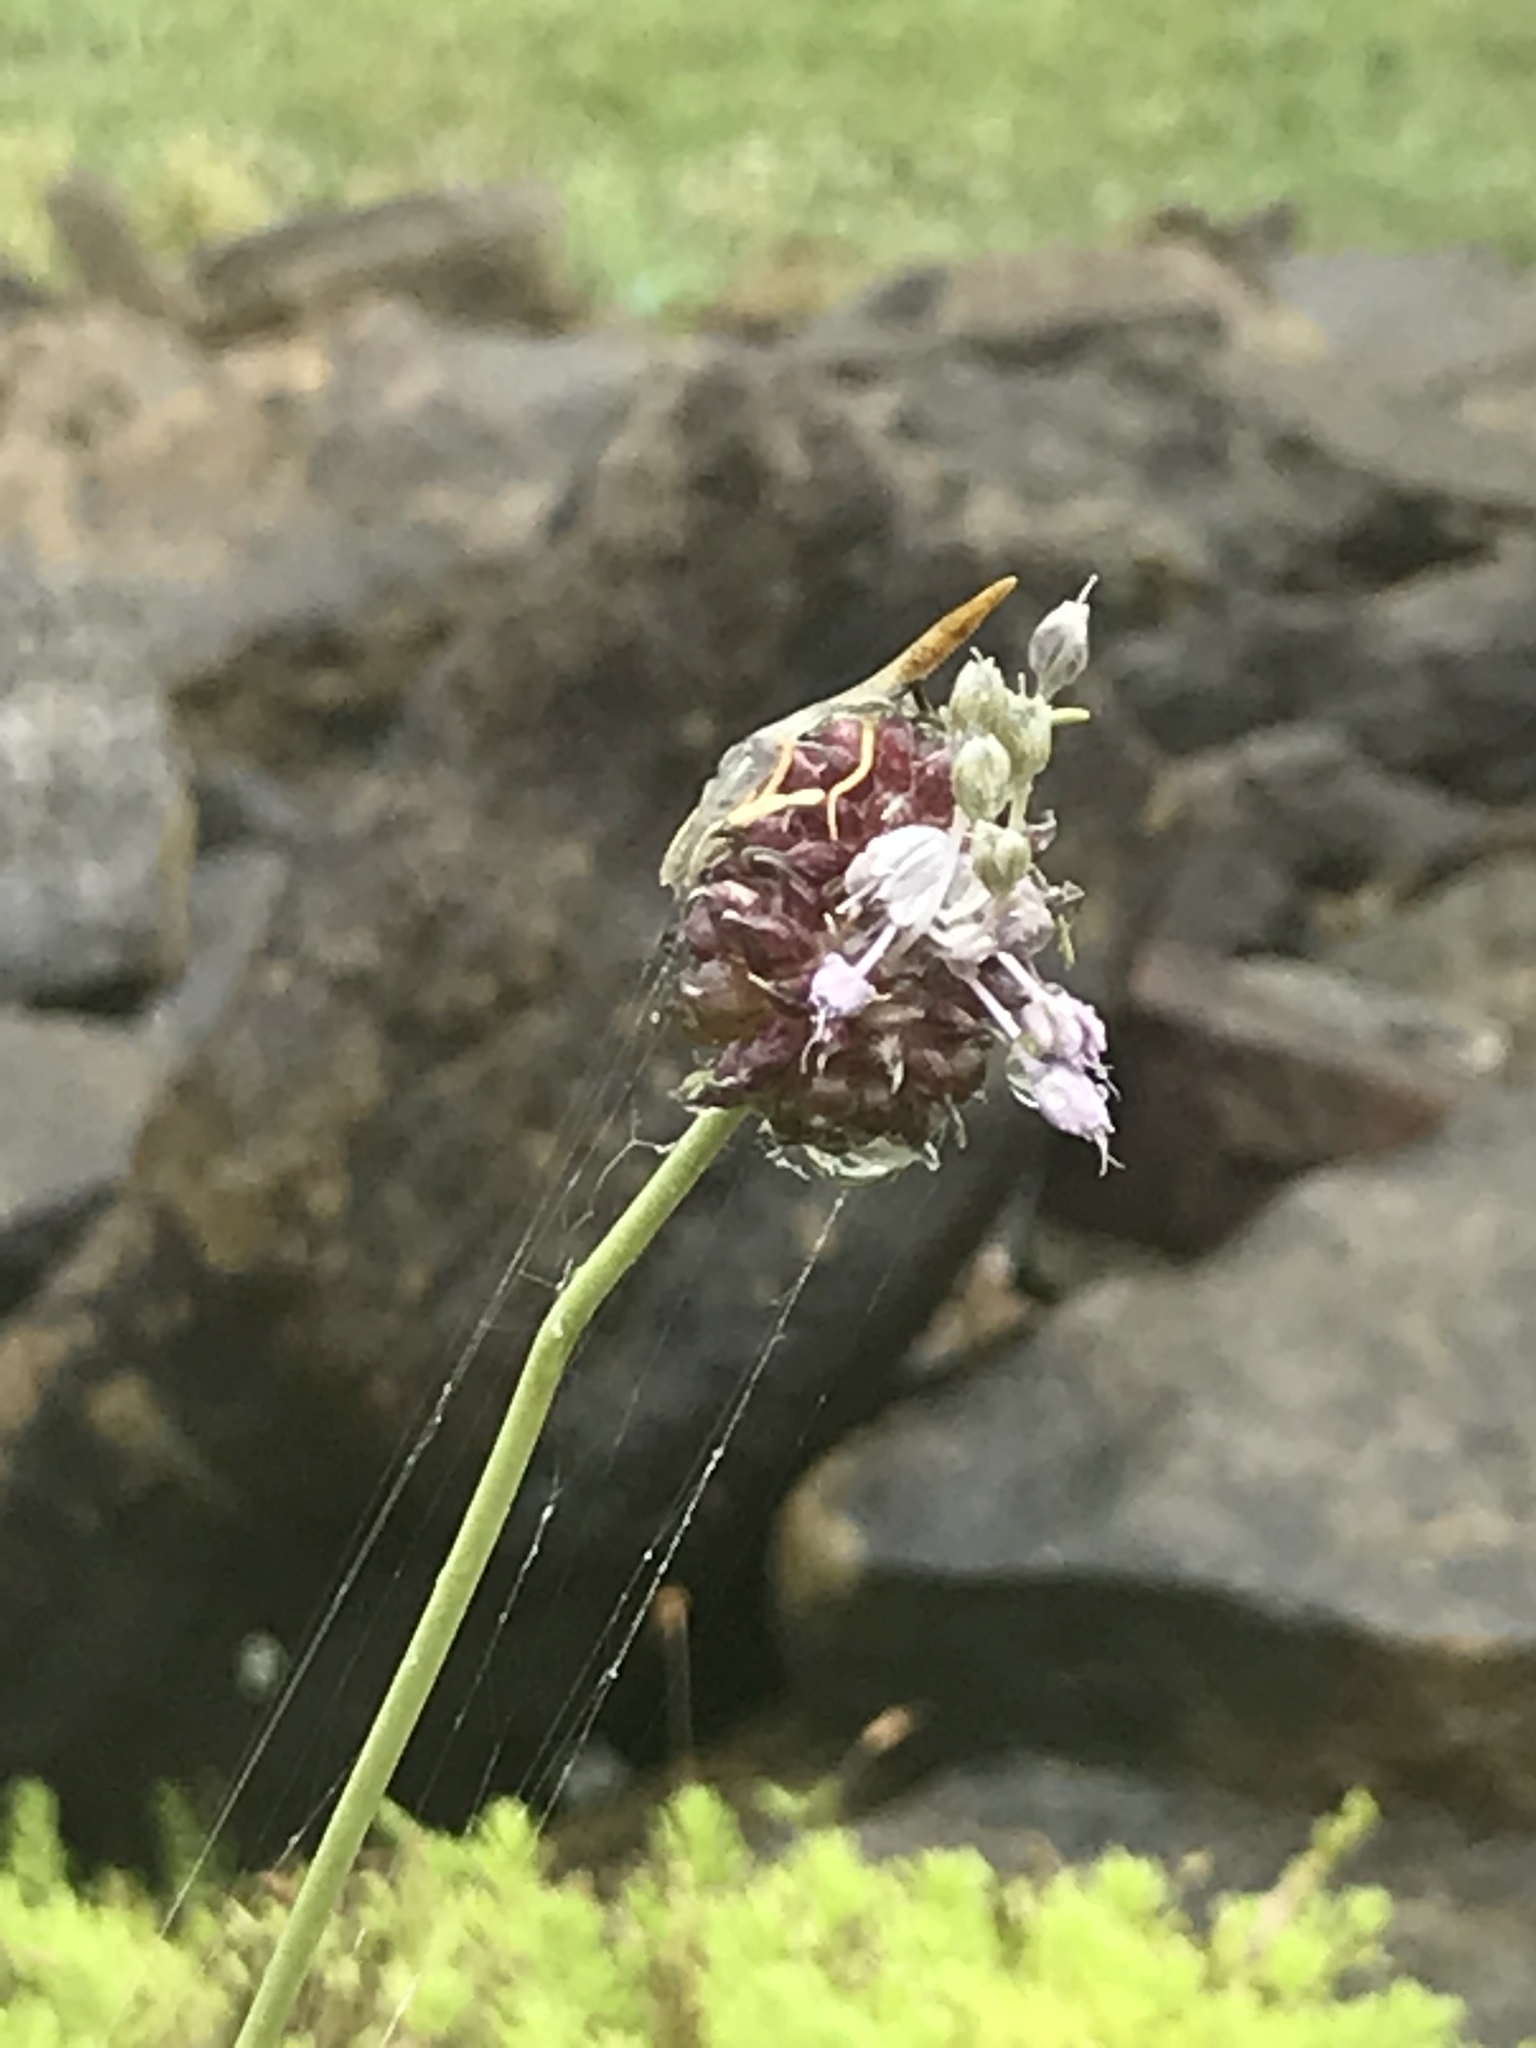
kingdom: Plantae
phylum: Tracheophyta
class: Liliopsida
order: Asparagales
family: Amaryllidaceae
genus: Allium
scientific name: Allium vineale
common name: Crow garlic
